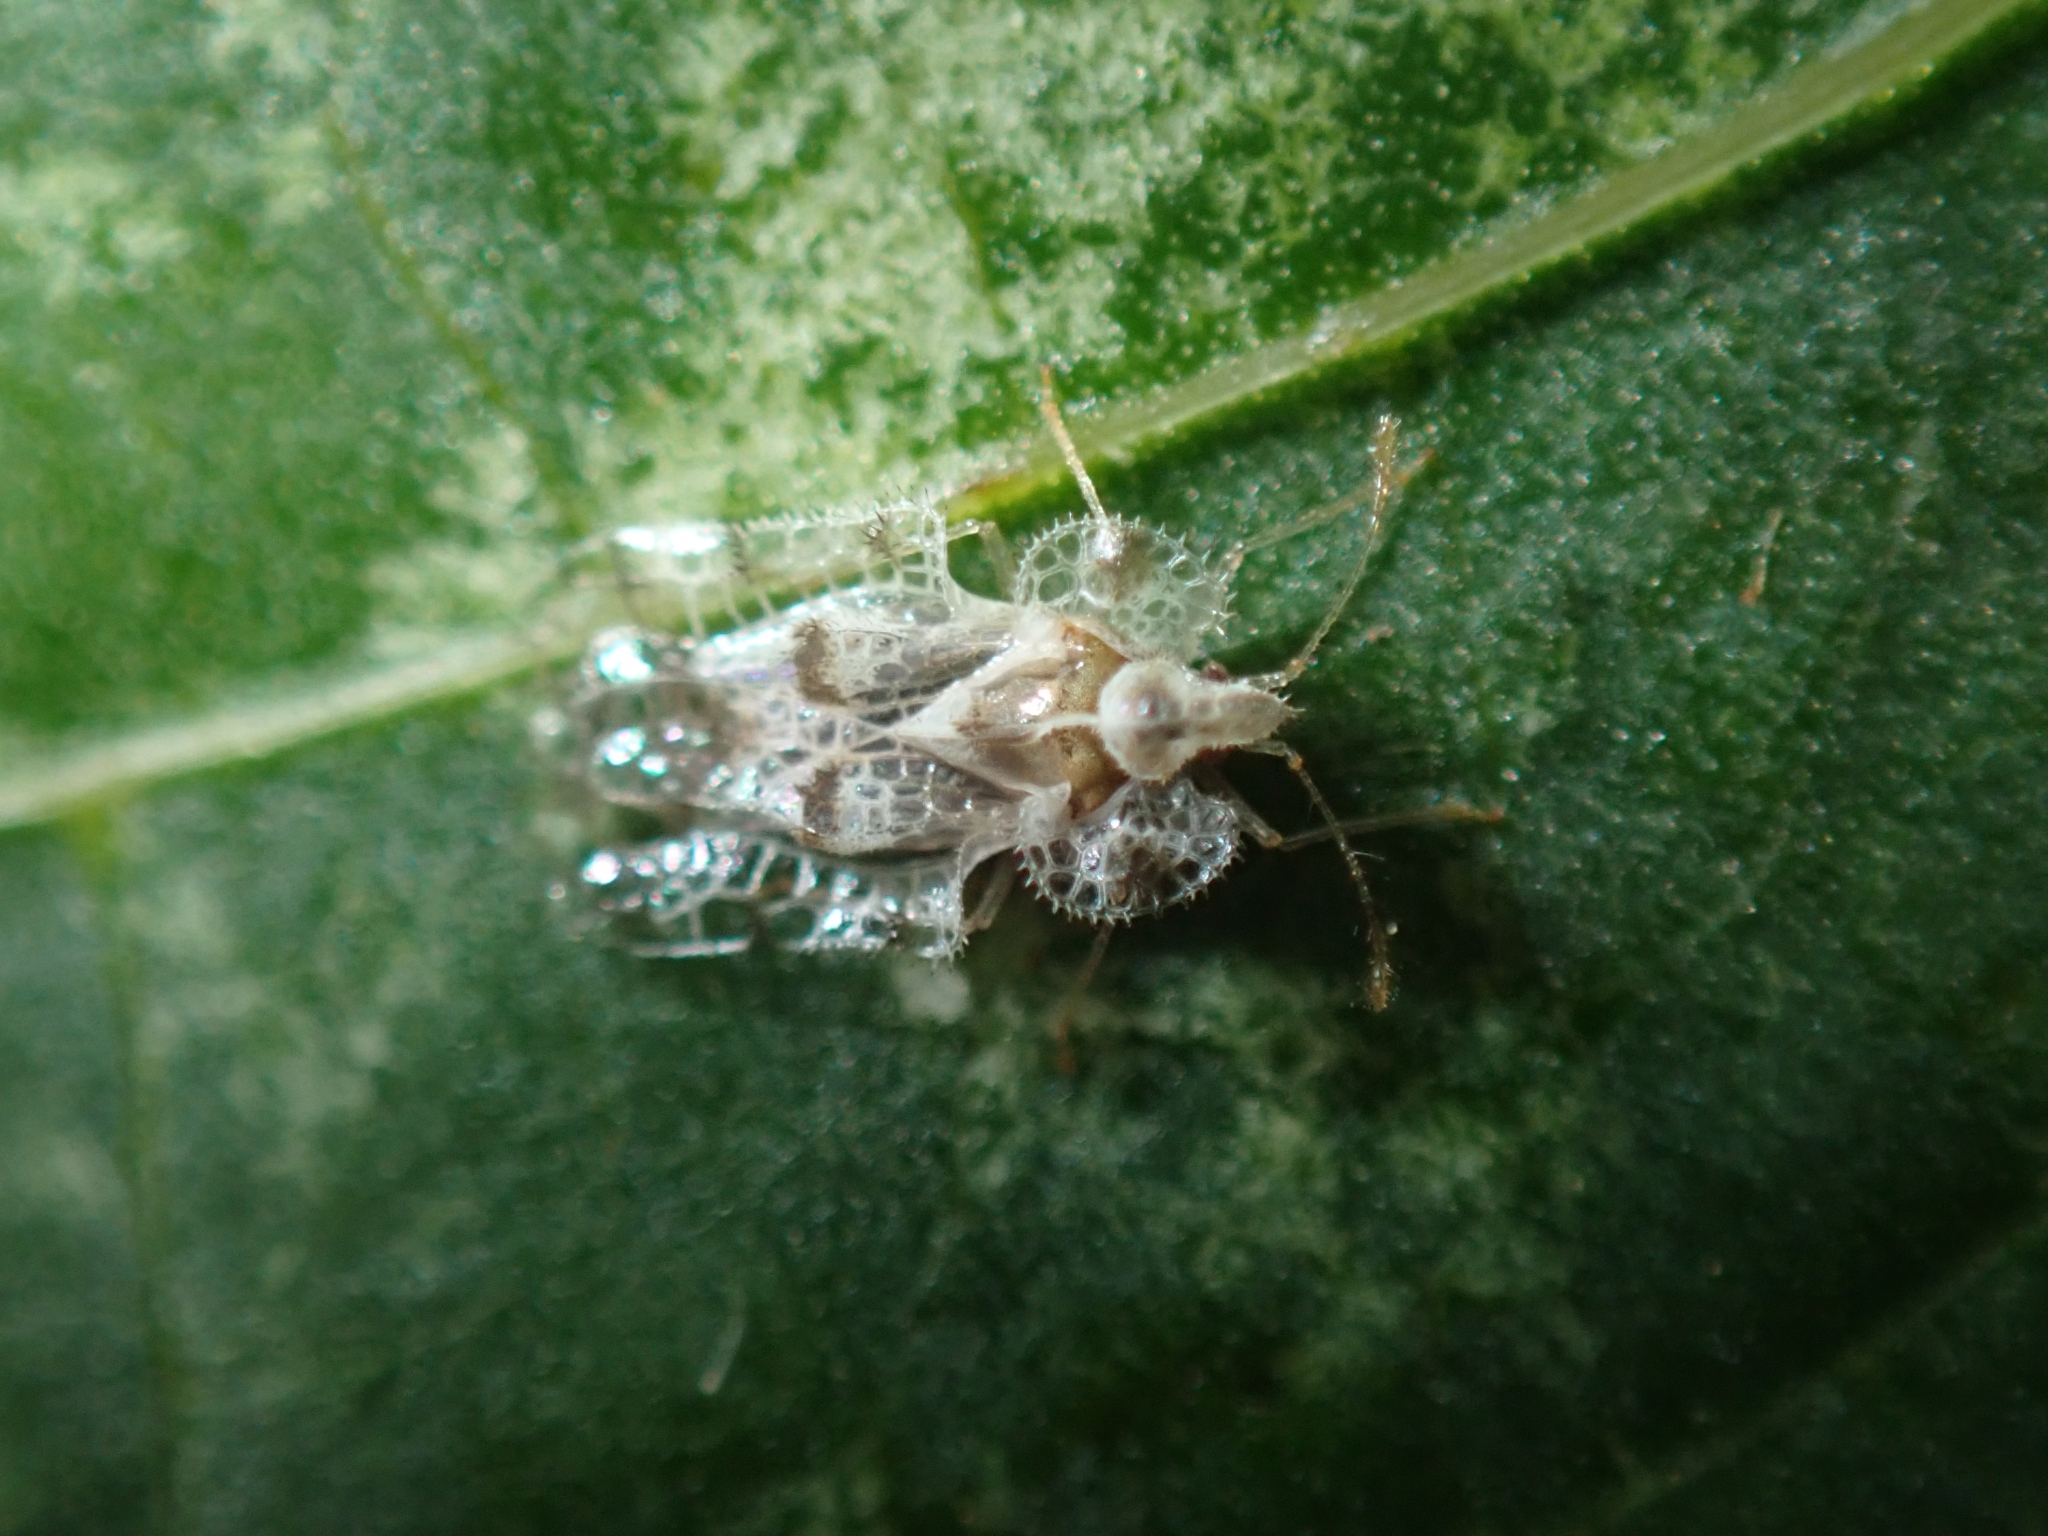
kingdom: Animalia
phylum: Arthropoda
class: Insecta
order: Hemiptera
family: Tingidae
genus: Corythucha
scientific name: Corythucha gossypii
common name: Cotton lace bug
